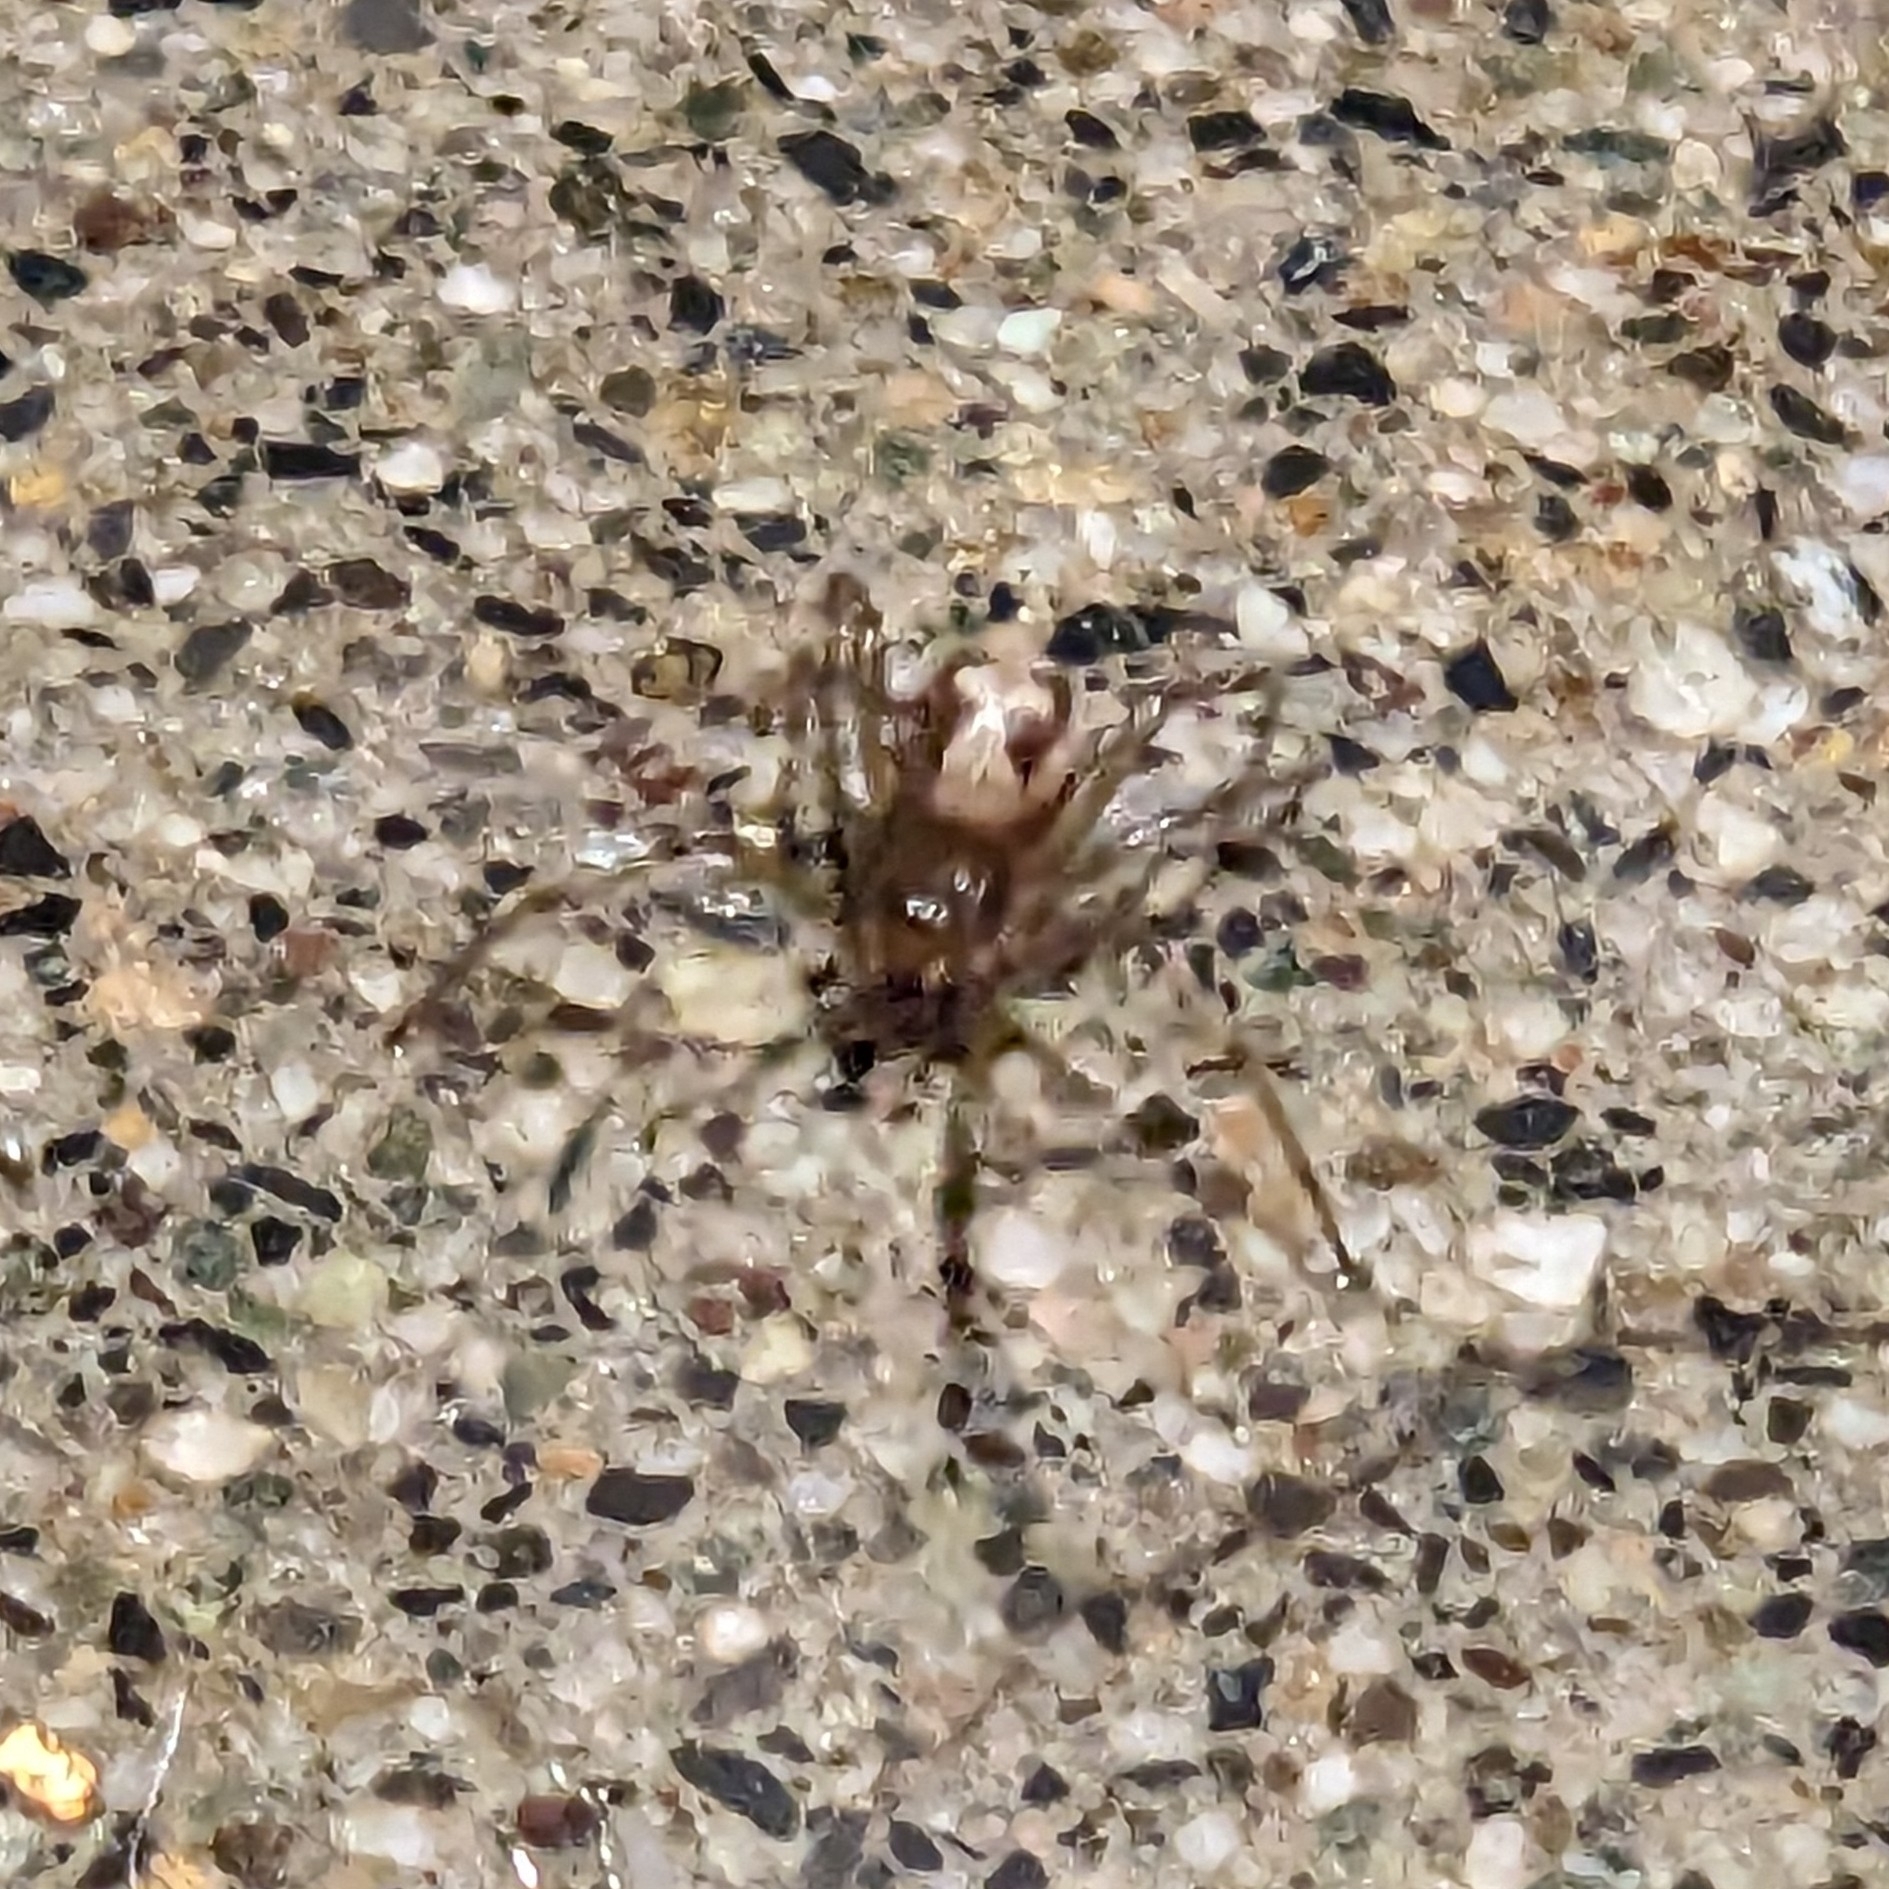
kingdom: Animalia
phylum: Arthropoda
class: Arachnida
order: Araneae
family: Theridiidae
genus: Steatoda
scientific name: Steatoda triangulosa
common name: Triangulate bud spider
